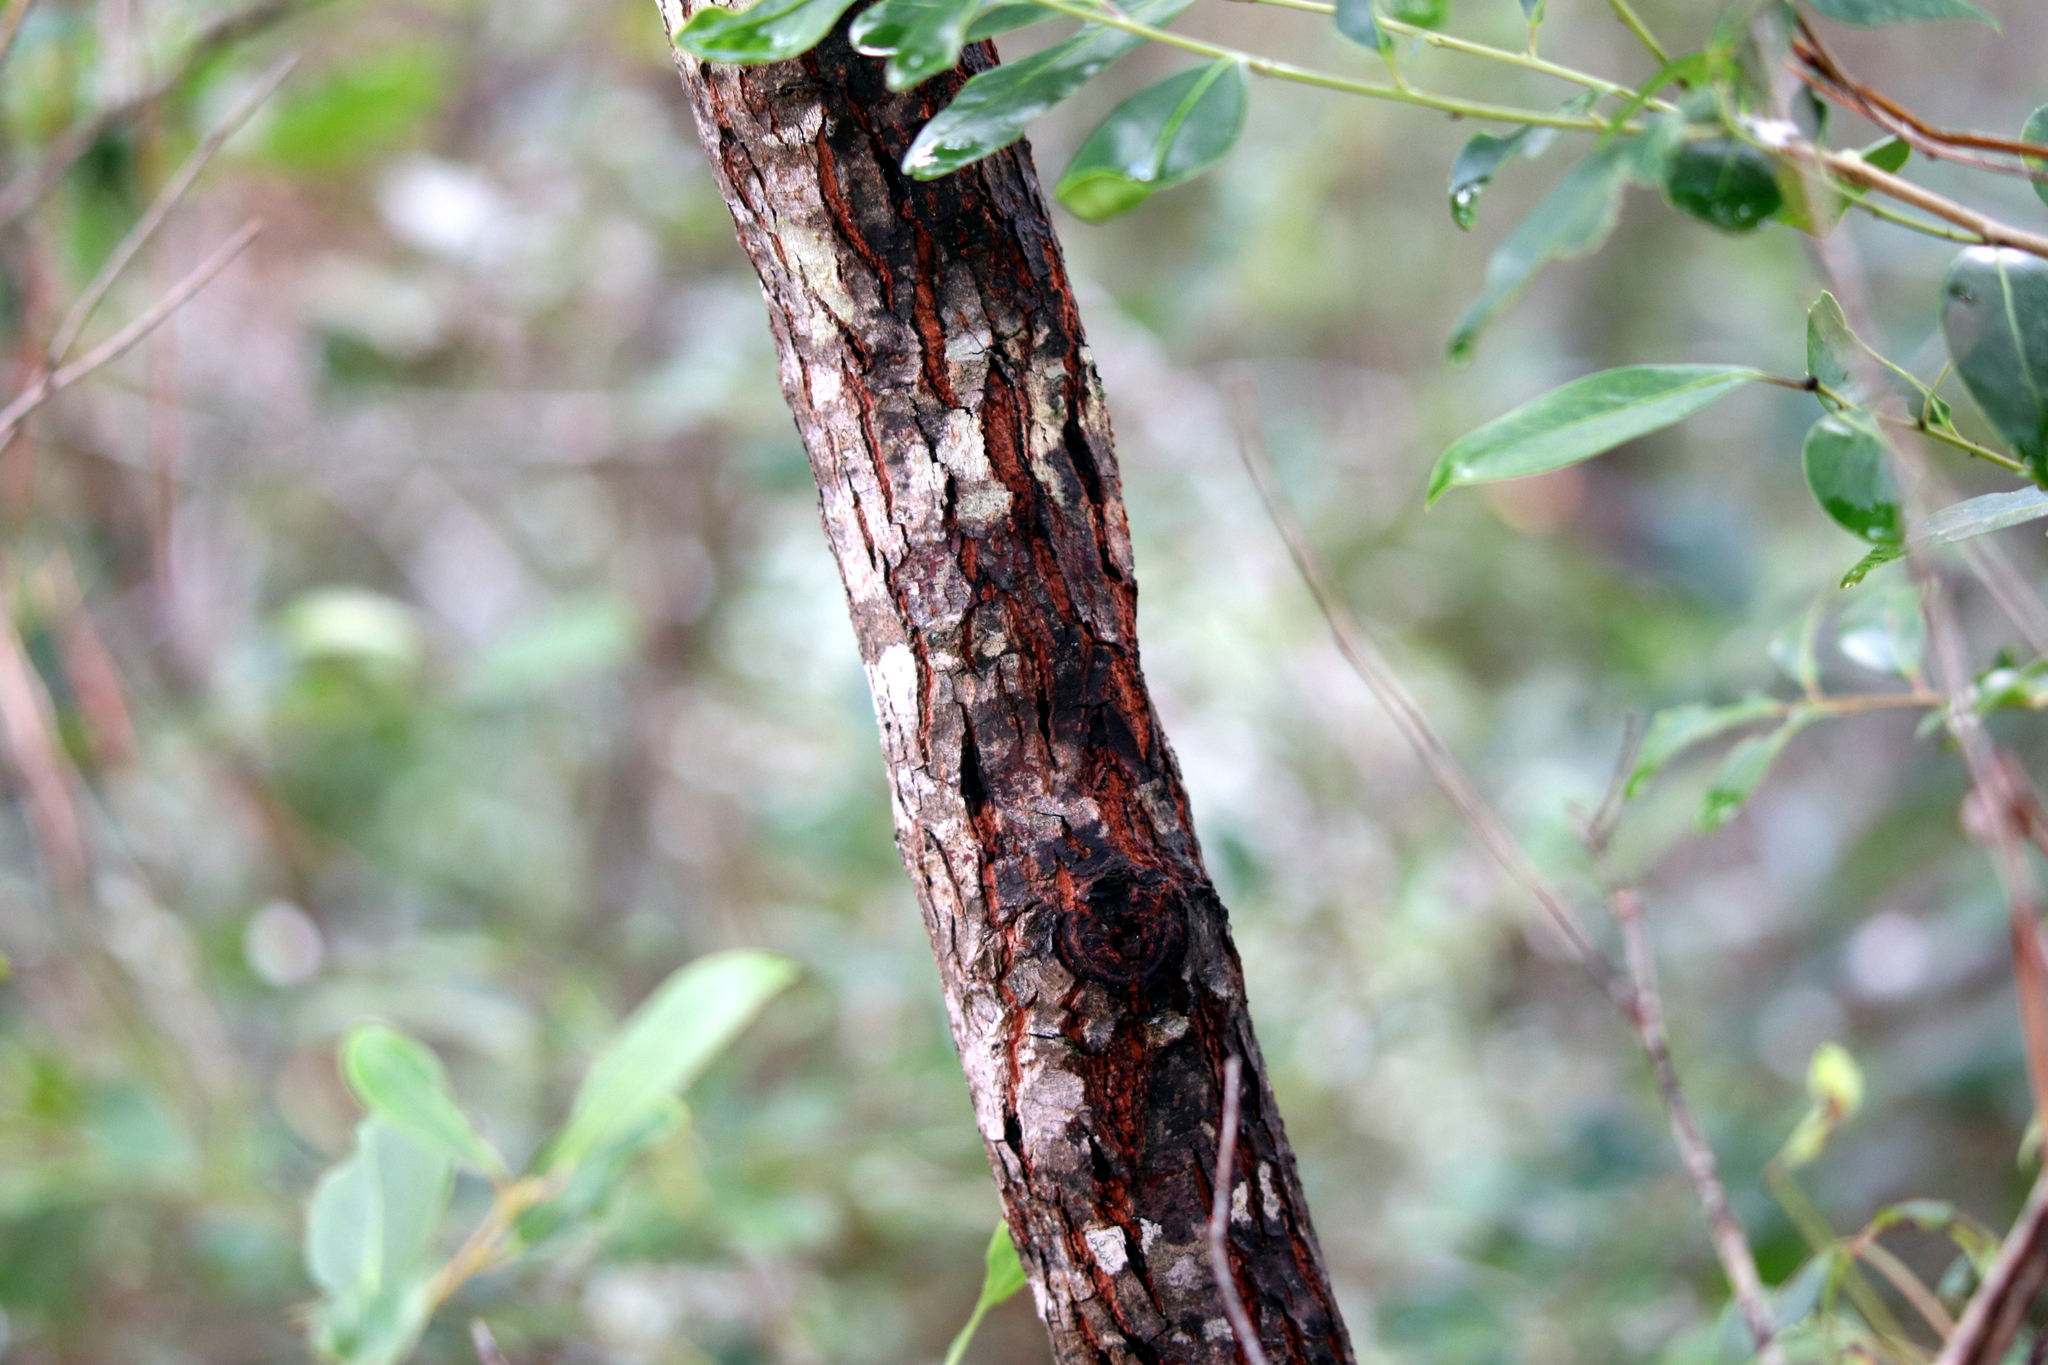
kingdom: Plantae
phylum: Tracheophyta
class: Magnoliopsida
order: Ericales
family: Ebenaceae
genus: Diospyros
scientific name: Diospyros virginiana
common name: Persimmon
